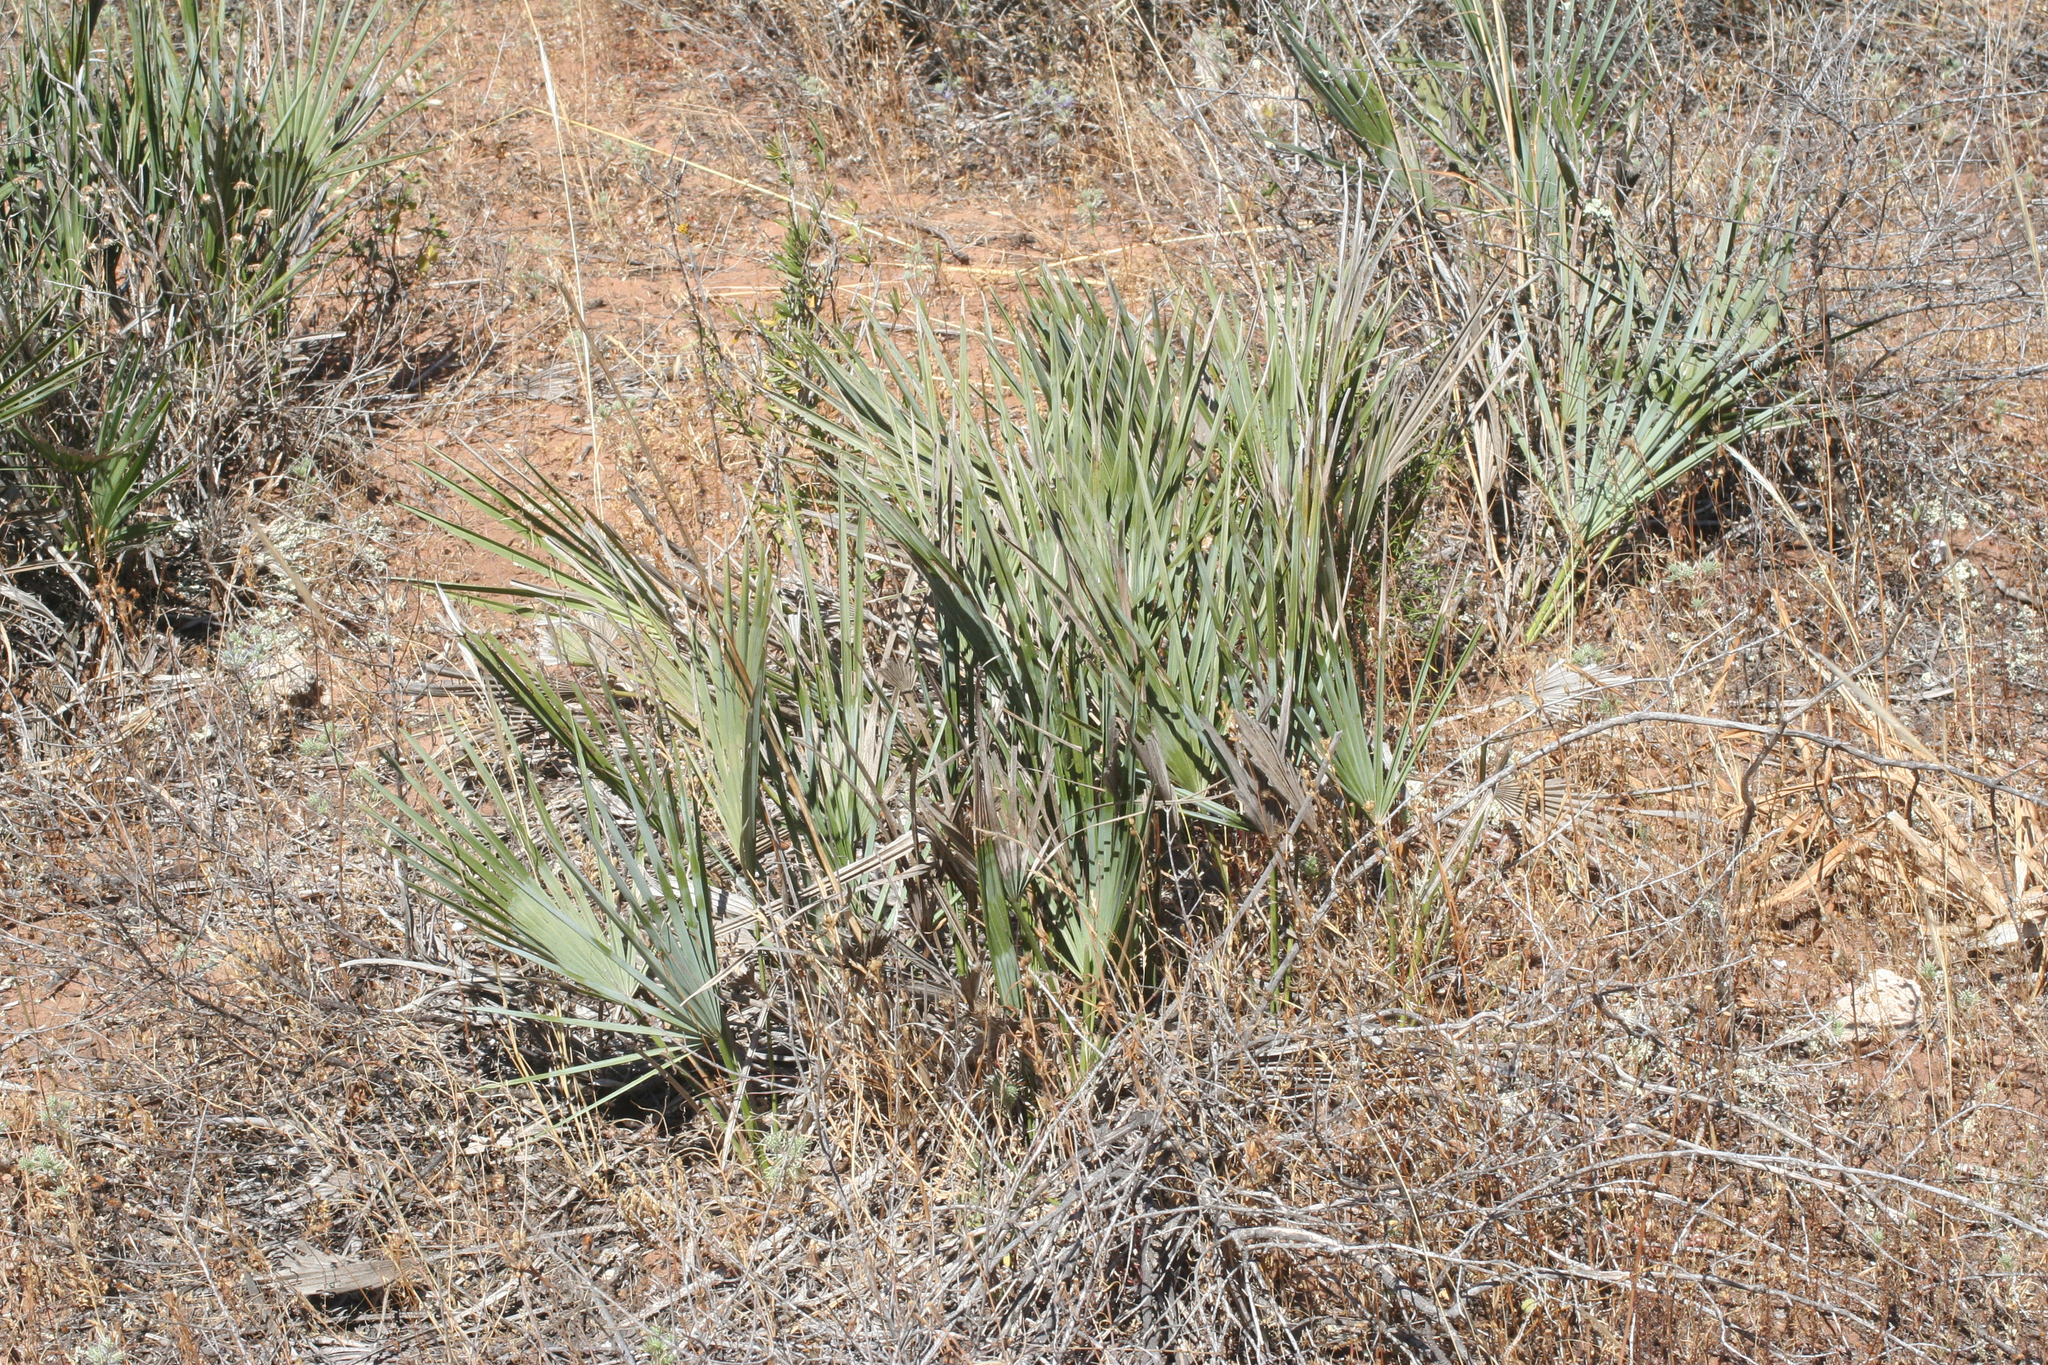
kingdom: Plantae
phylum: Tracheophyta
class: Liliopsida
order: Arecales
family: Arecaceae
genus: Chamaerops
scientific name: Chamaerops humilis
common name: Dwarf fan palm
